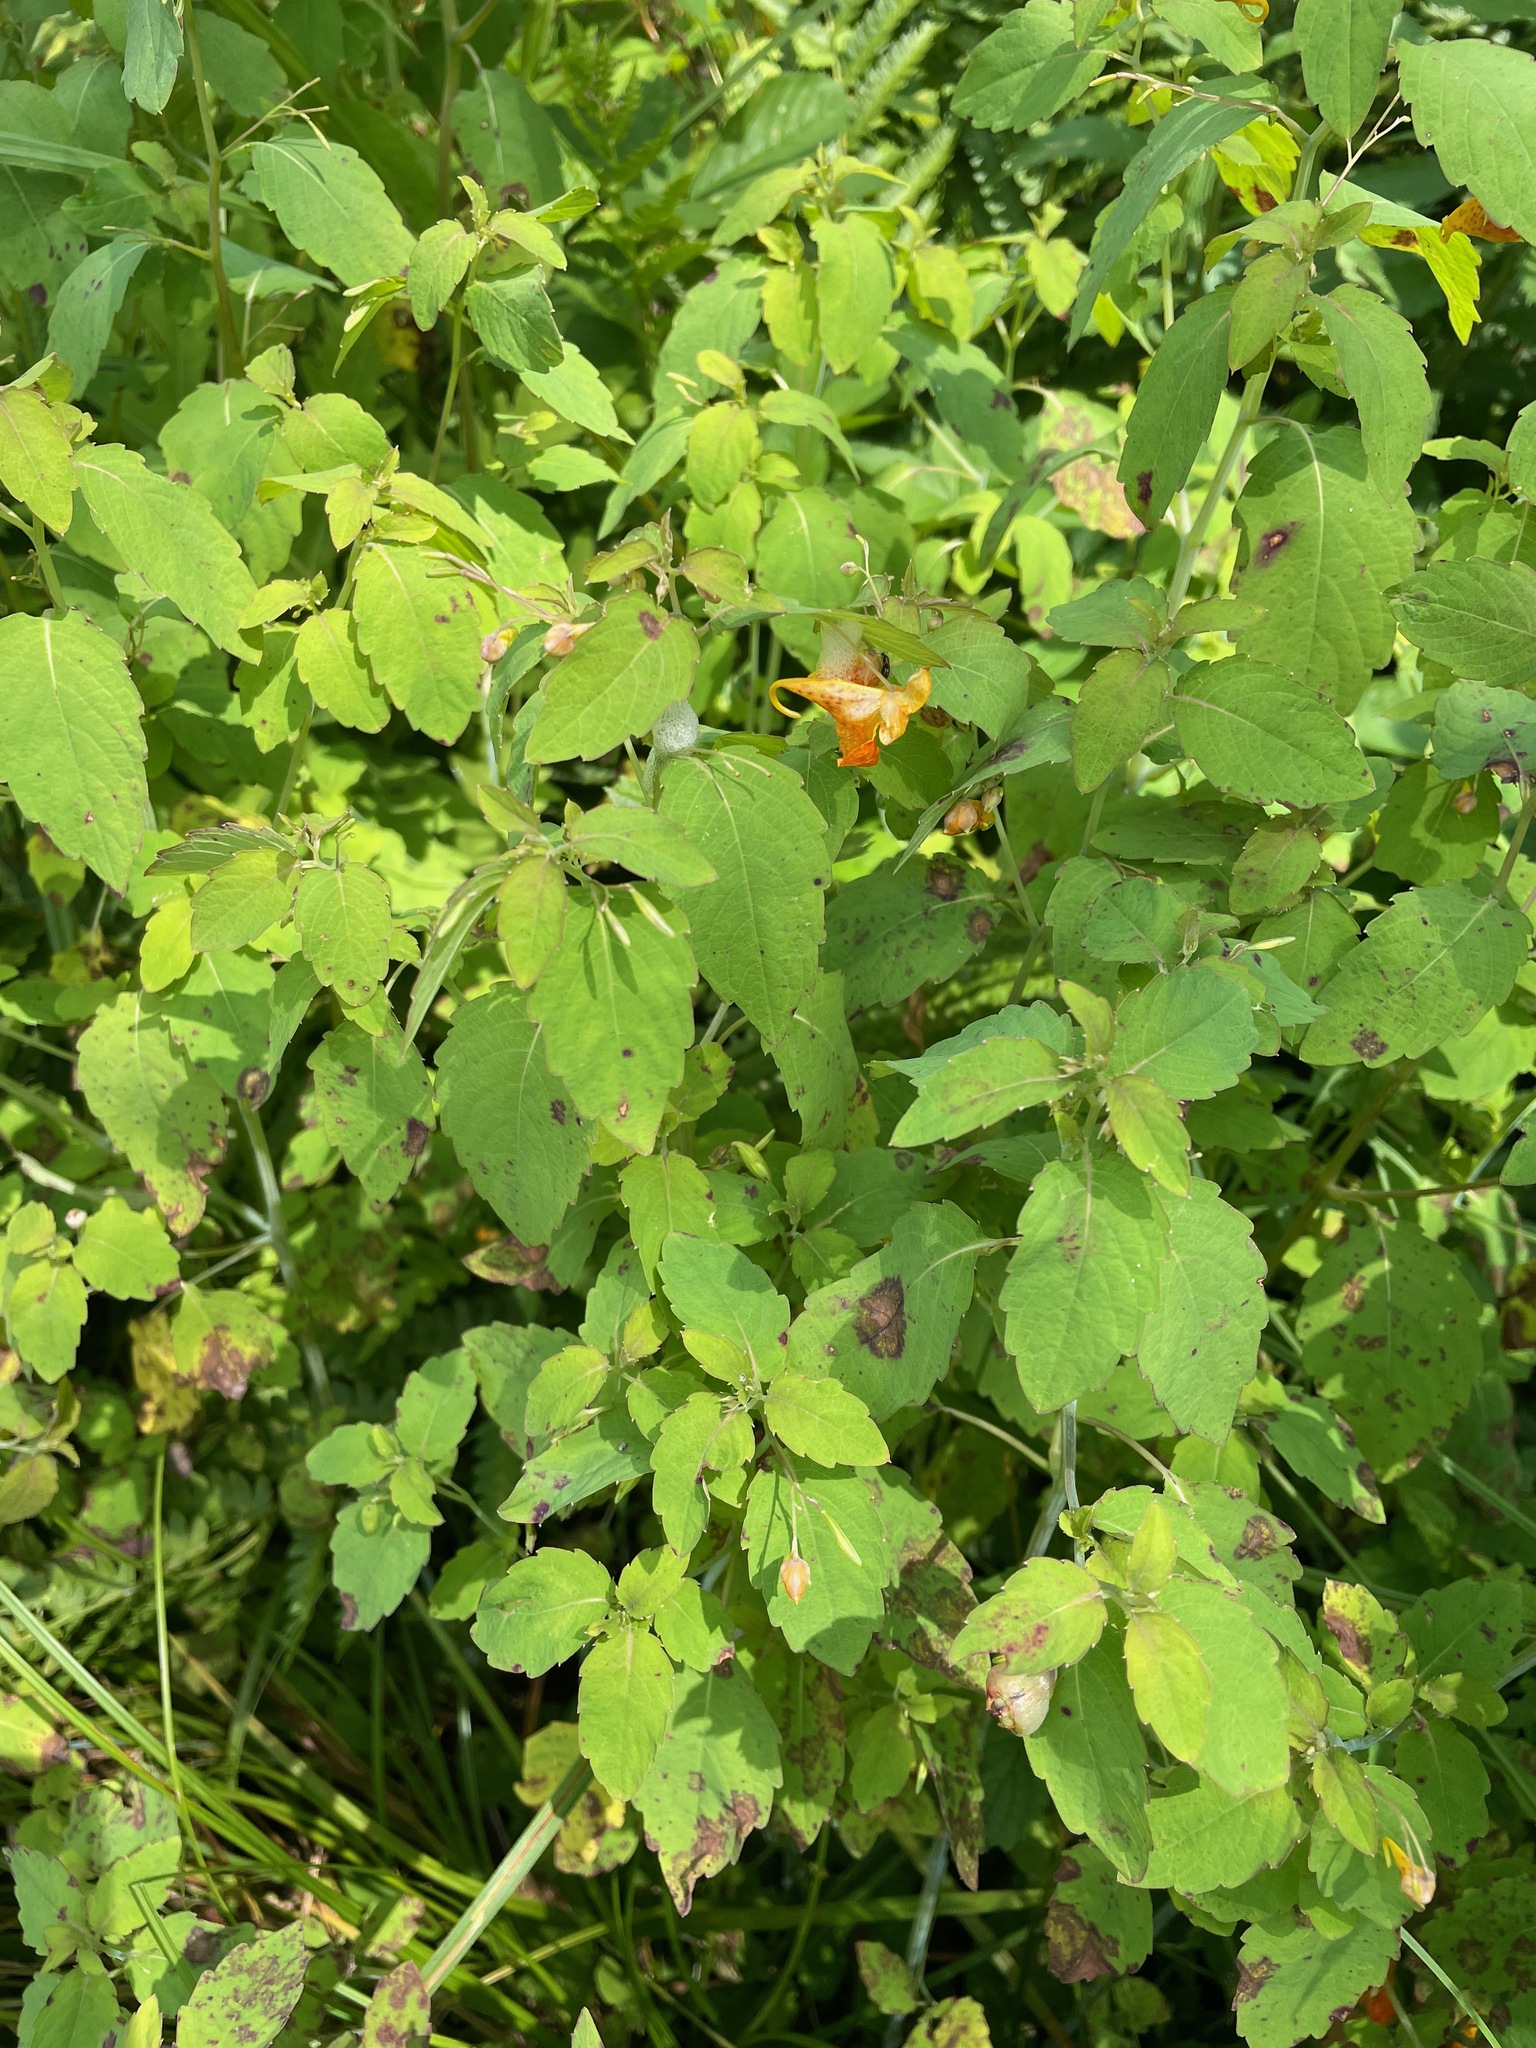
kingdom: Plantae
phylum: Tracheophyta
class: Magnoliopsida
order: Ericales
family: Balsaminaceae
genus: Impatiens
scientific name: Impatiens capensis
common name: Orange balsam
